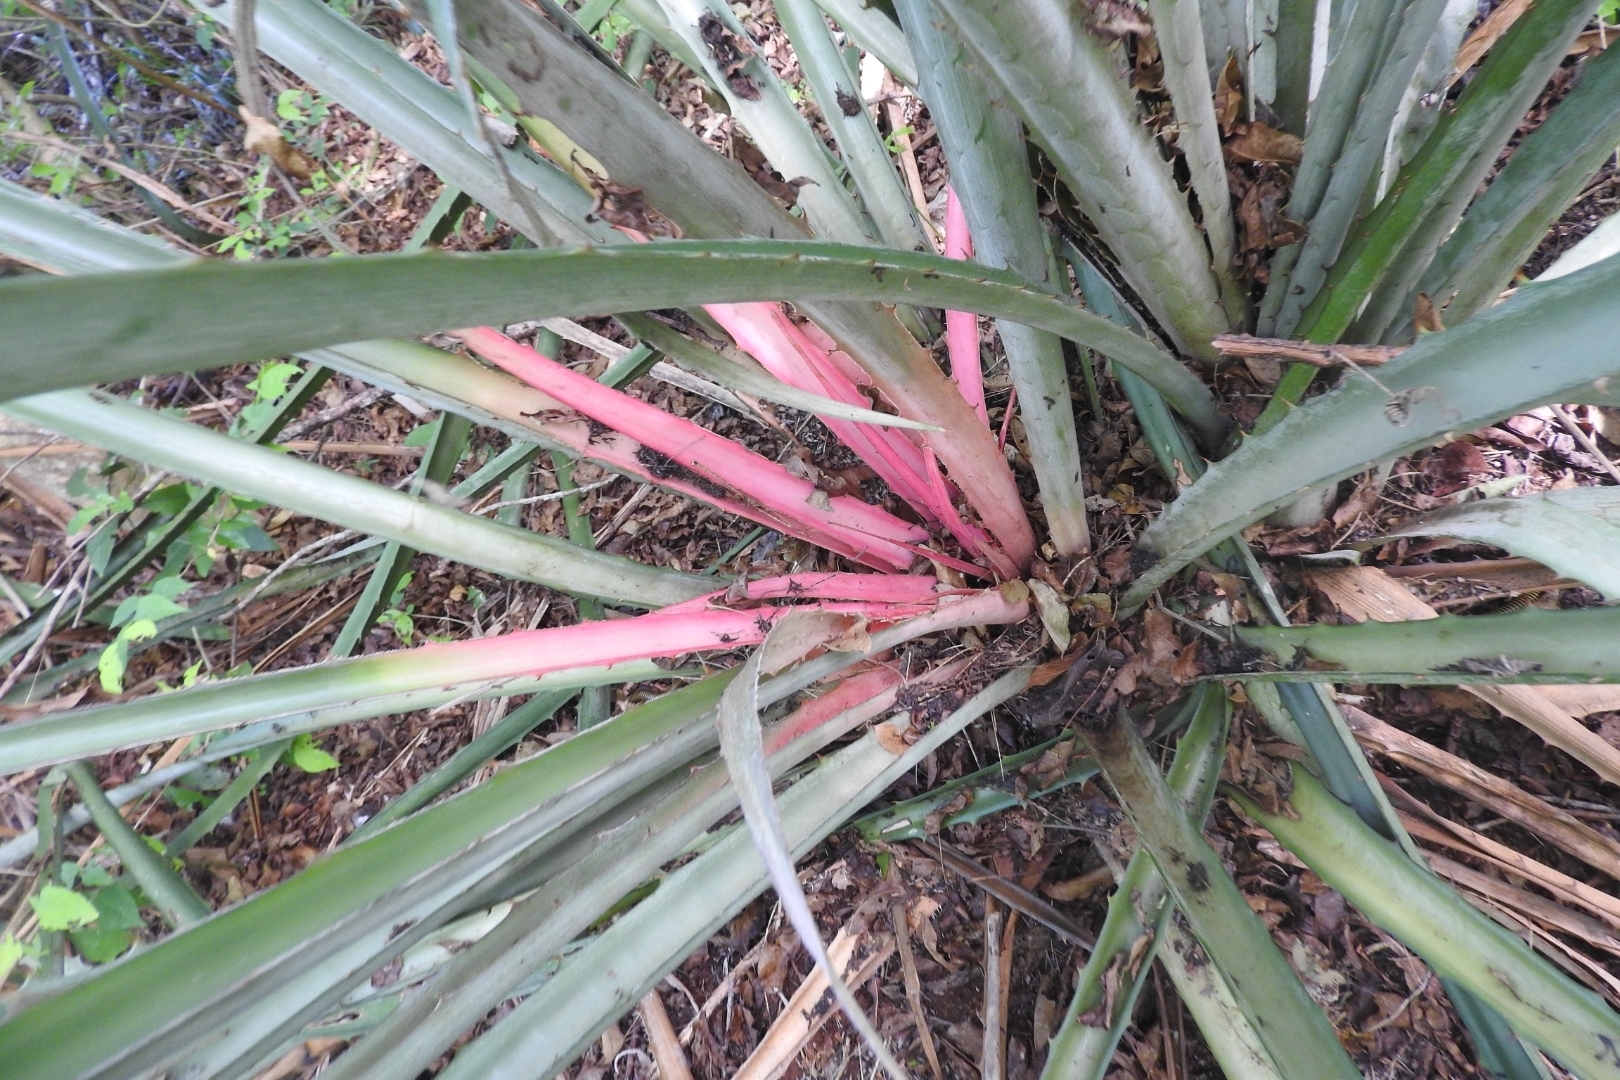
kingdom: Plantae
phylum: Tracheophyta
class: Liliopsida
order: Poales
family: Bromeliaceae
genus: Bromelia
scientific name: Bromelia karatas
